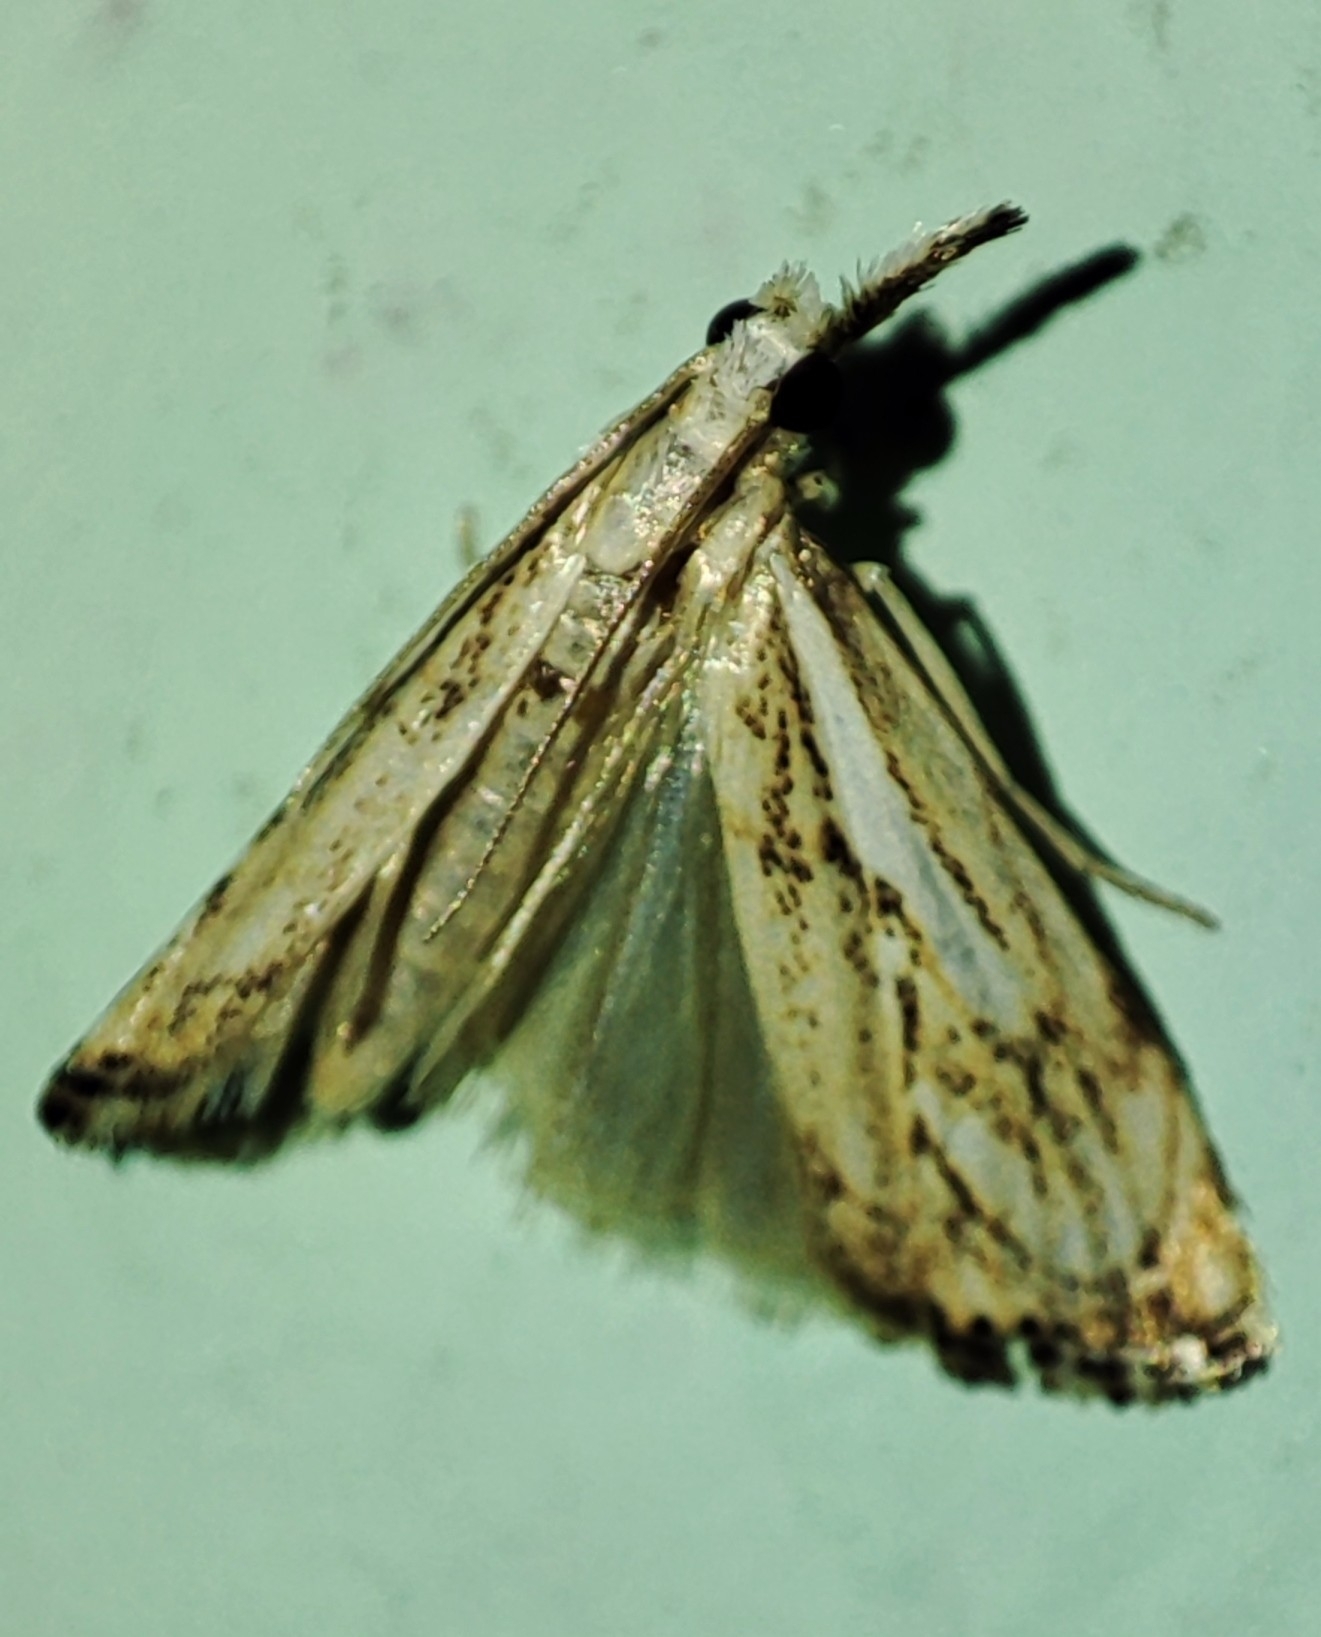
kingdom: Animalia
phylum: Arthropoda
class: Insecta
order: Lepidoptera
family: Crambidae
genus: Catoptria
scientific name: Catoptria falsella
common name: Chequered grass-veneer
